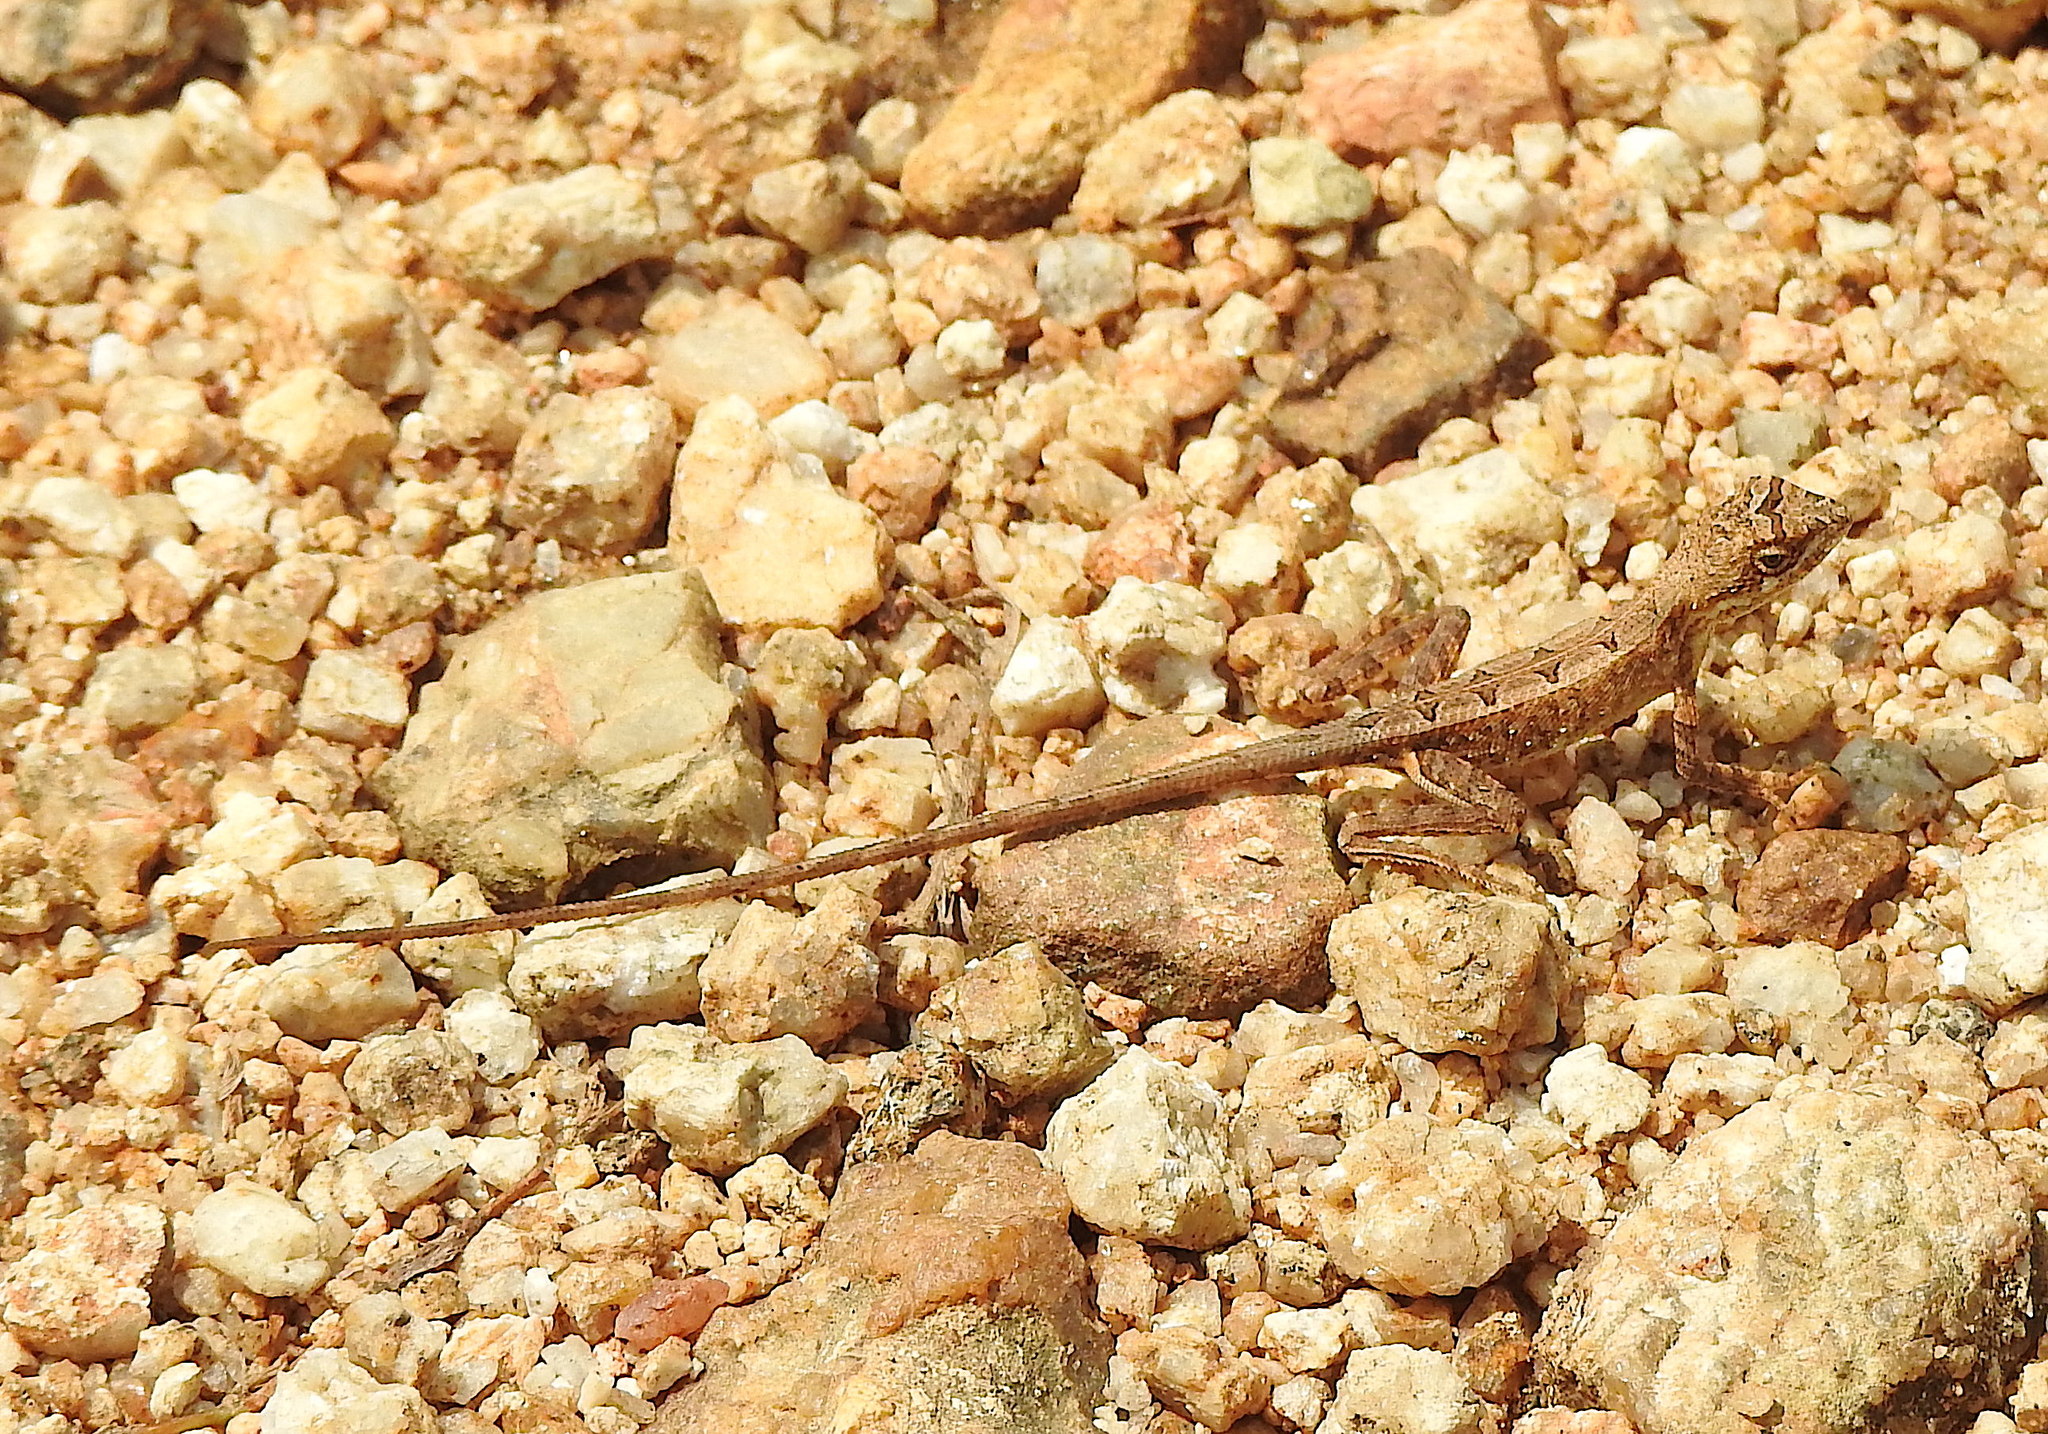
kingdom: Animalia
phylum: Chordata
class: Squamata
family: Agamidae
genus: Sitana
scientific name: Sitana ponticeriana
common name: Pondichéry fan throated lizard
